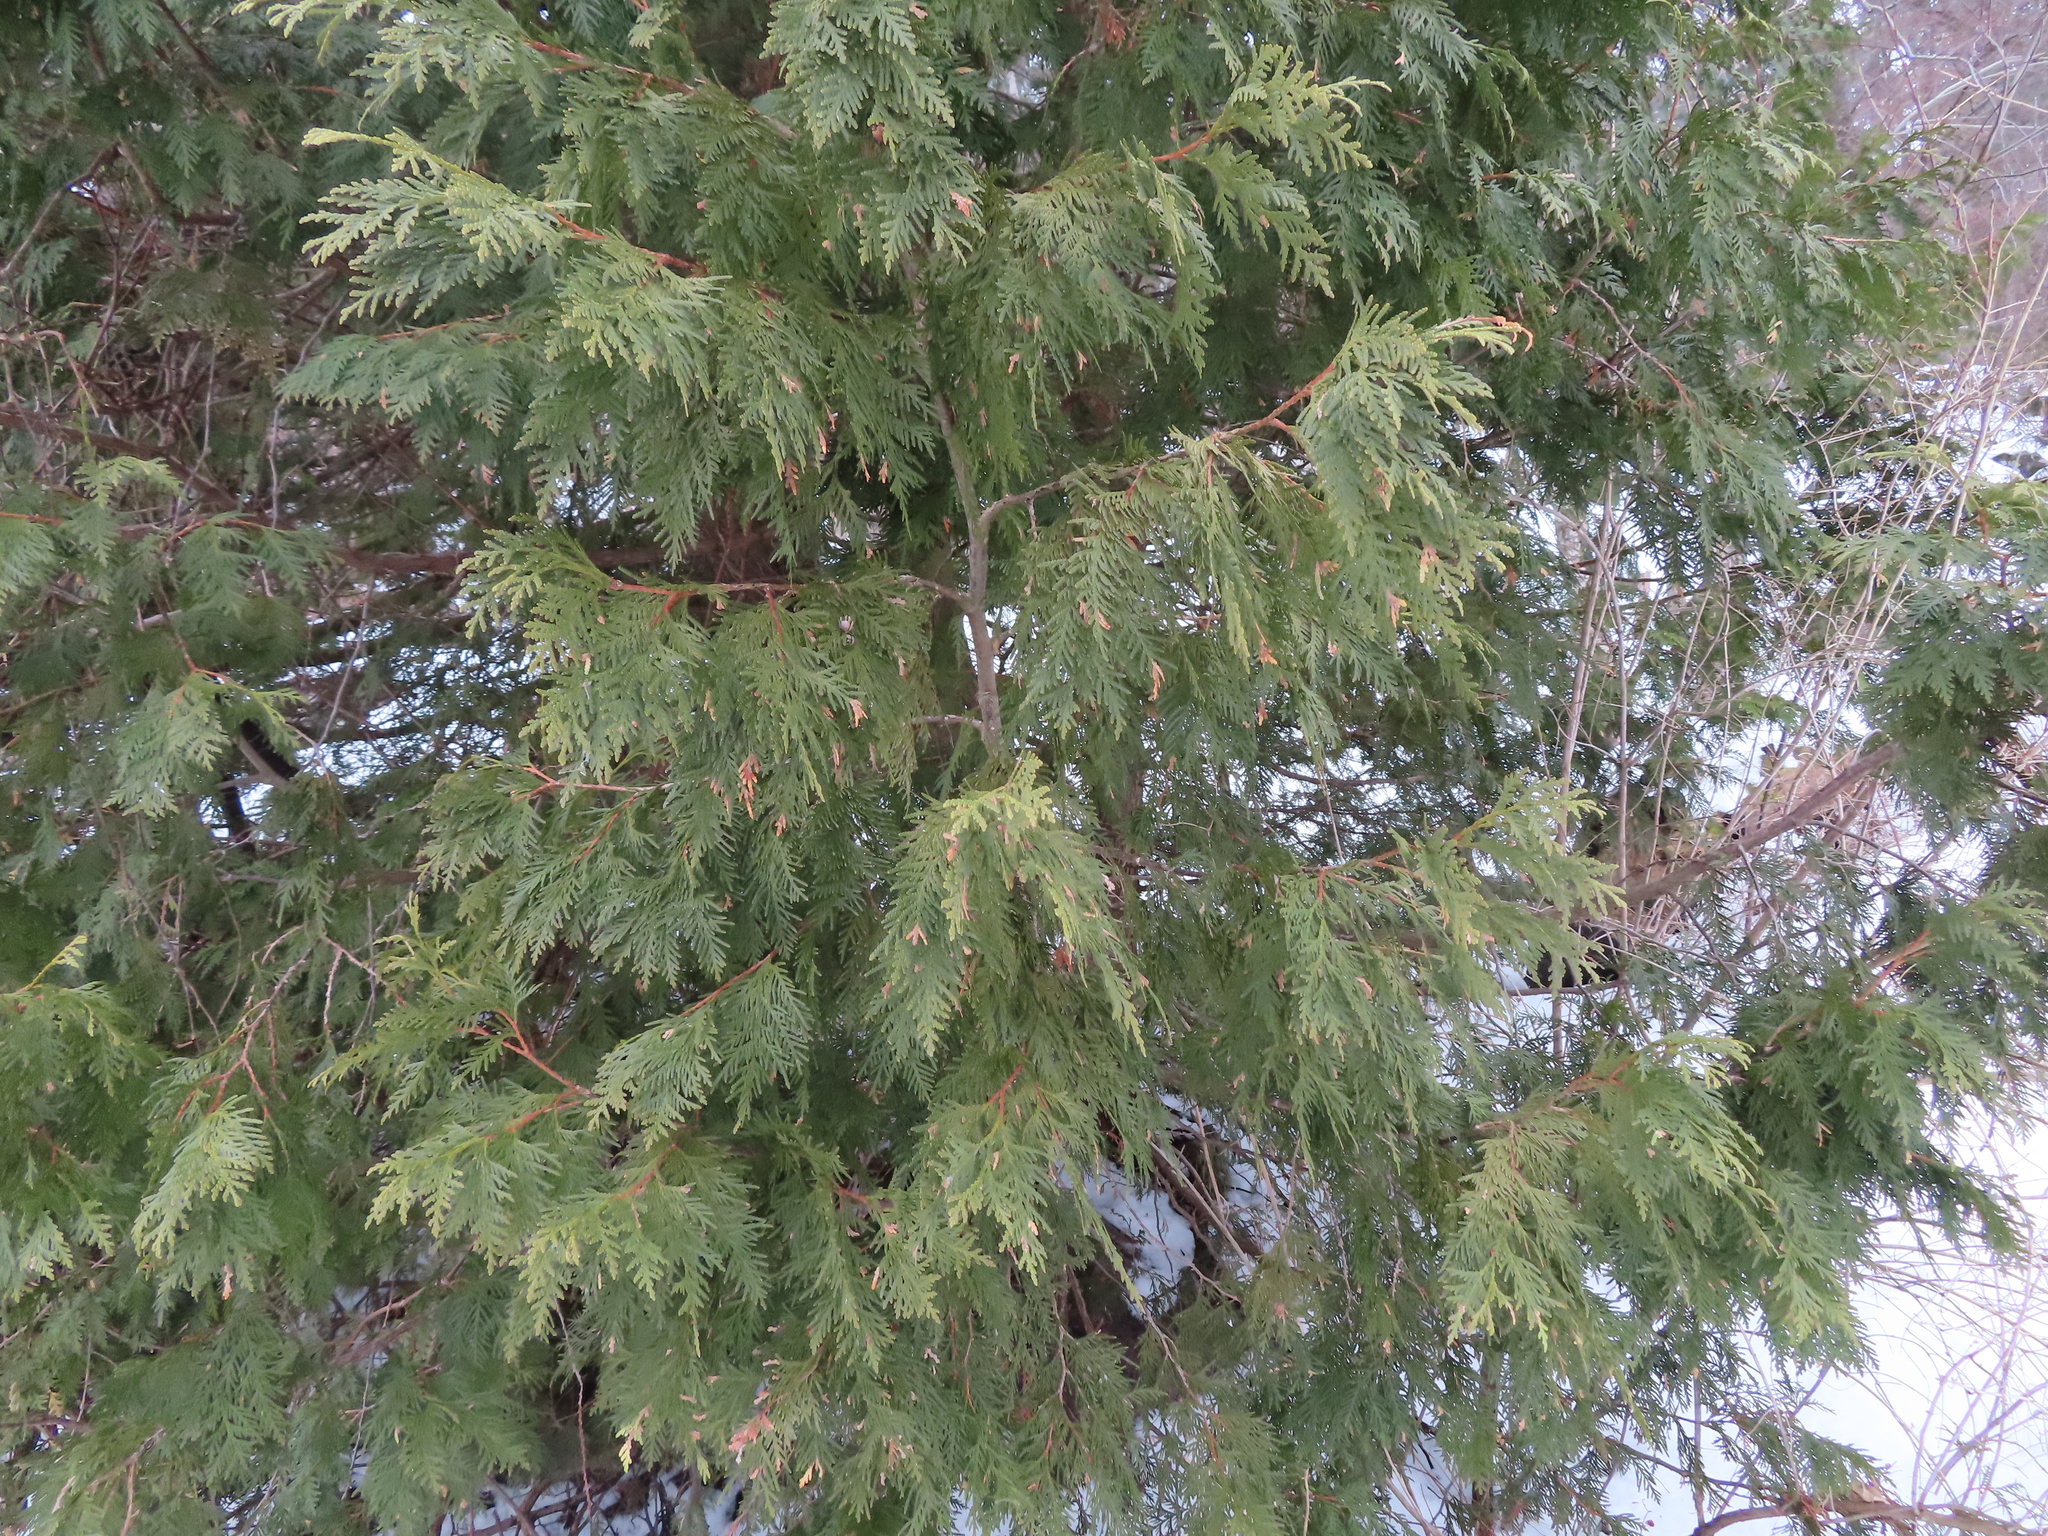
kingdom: Plantae
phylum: Tracheophyta
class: Pinopsida
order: Pinales
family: Cupressaceae
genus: Thuja
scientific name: Thuja occidentalis
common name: Northern white-cedar
